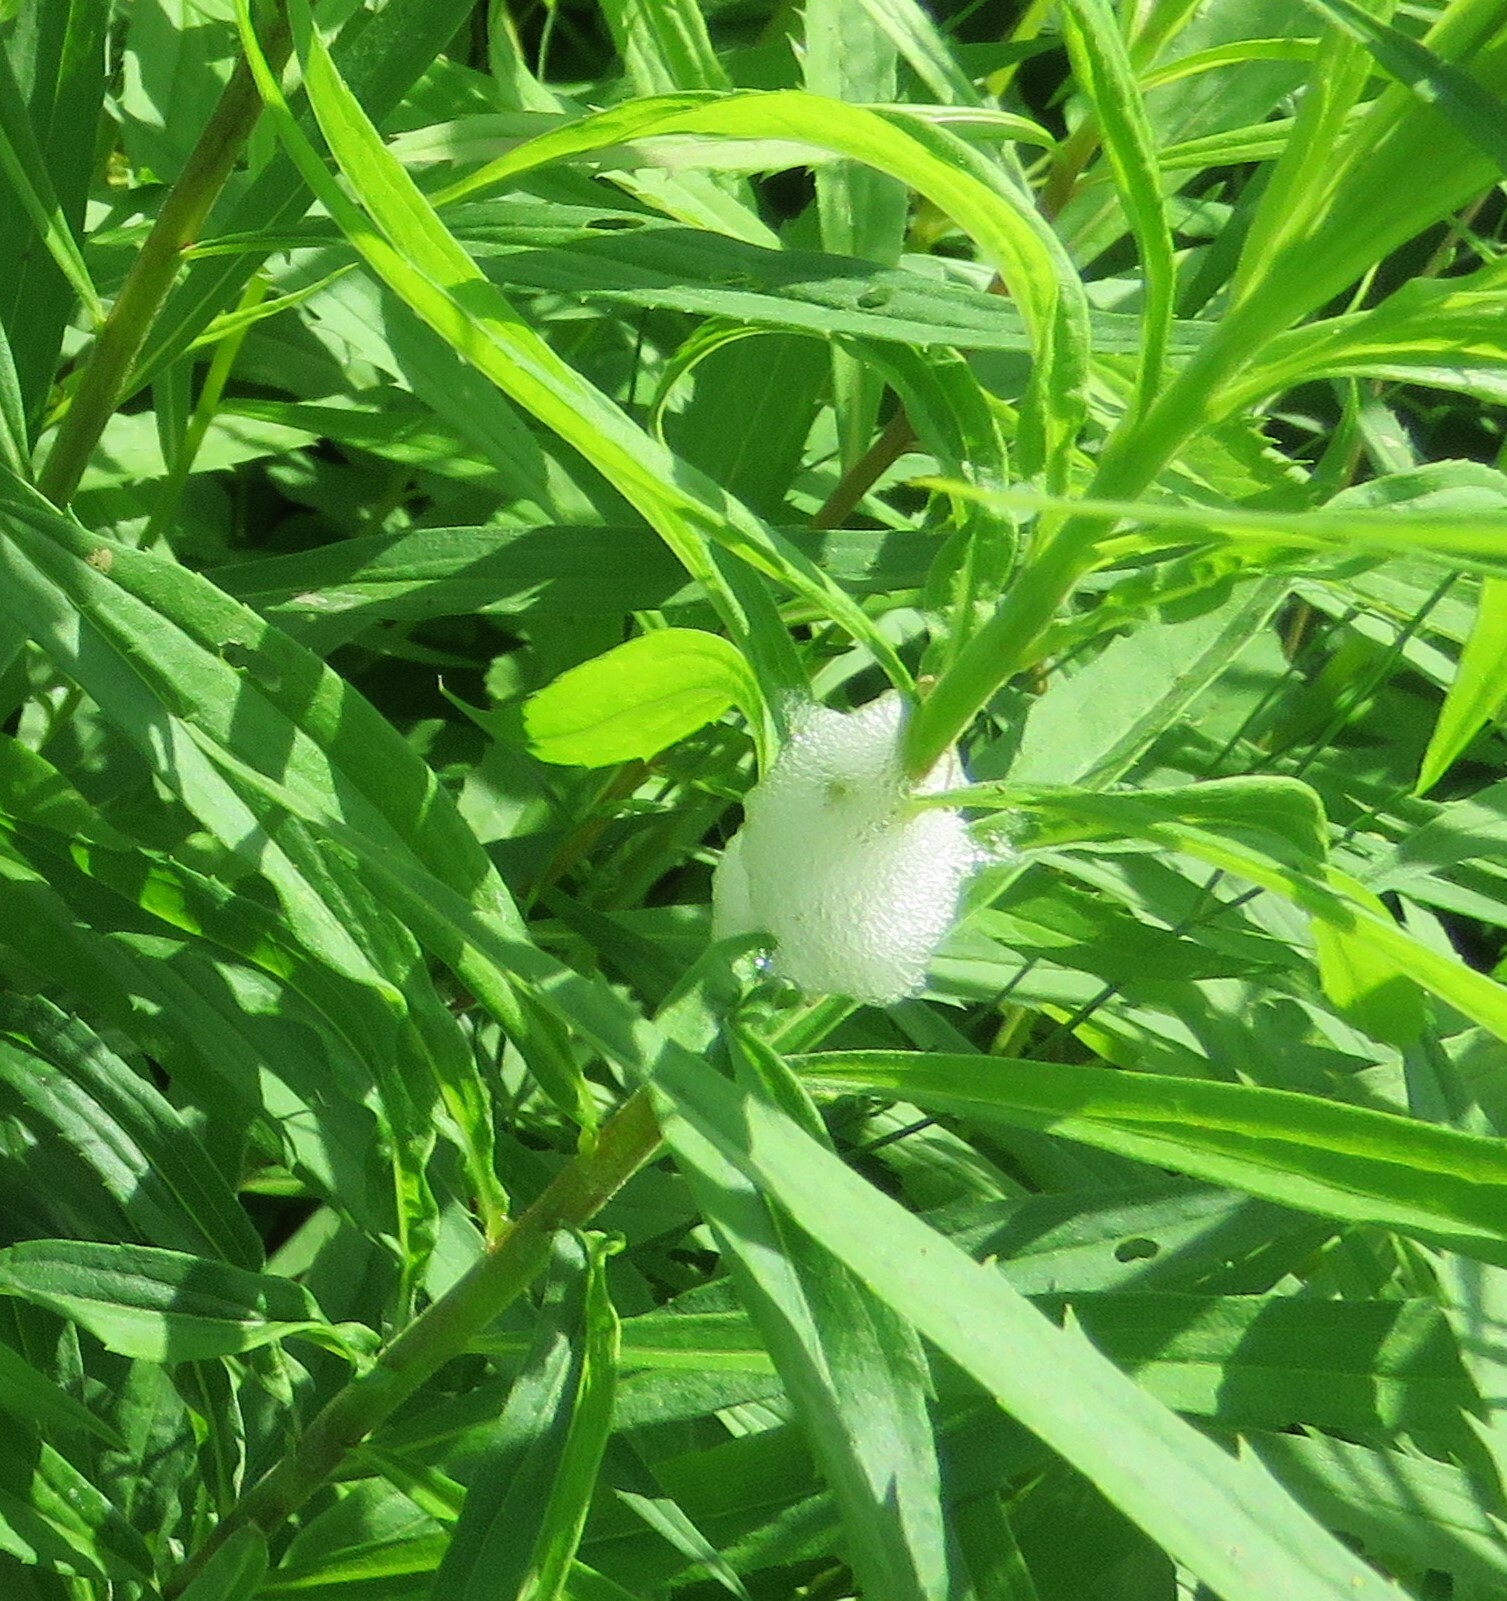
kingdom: Animalia
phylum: Arthropoda
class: Insecta
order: Hemiptera
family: Aphrophoridae
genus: Philaenus
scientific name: Philaenus spumarius
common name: Meadow spittlebug
